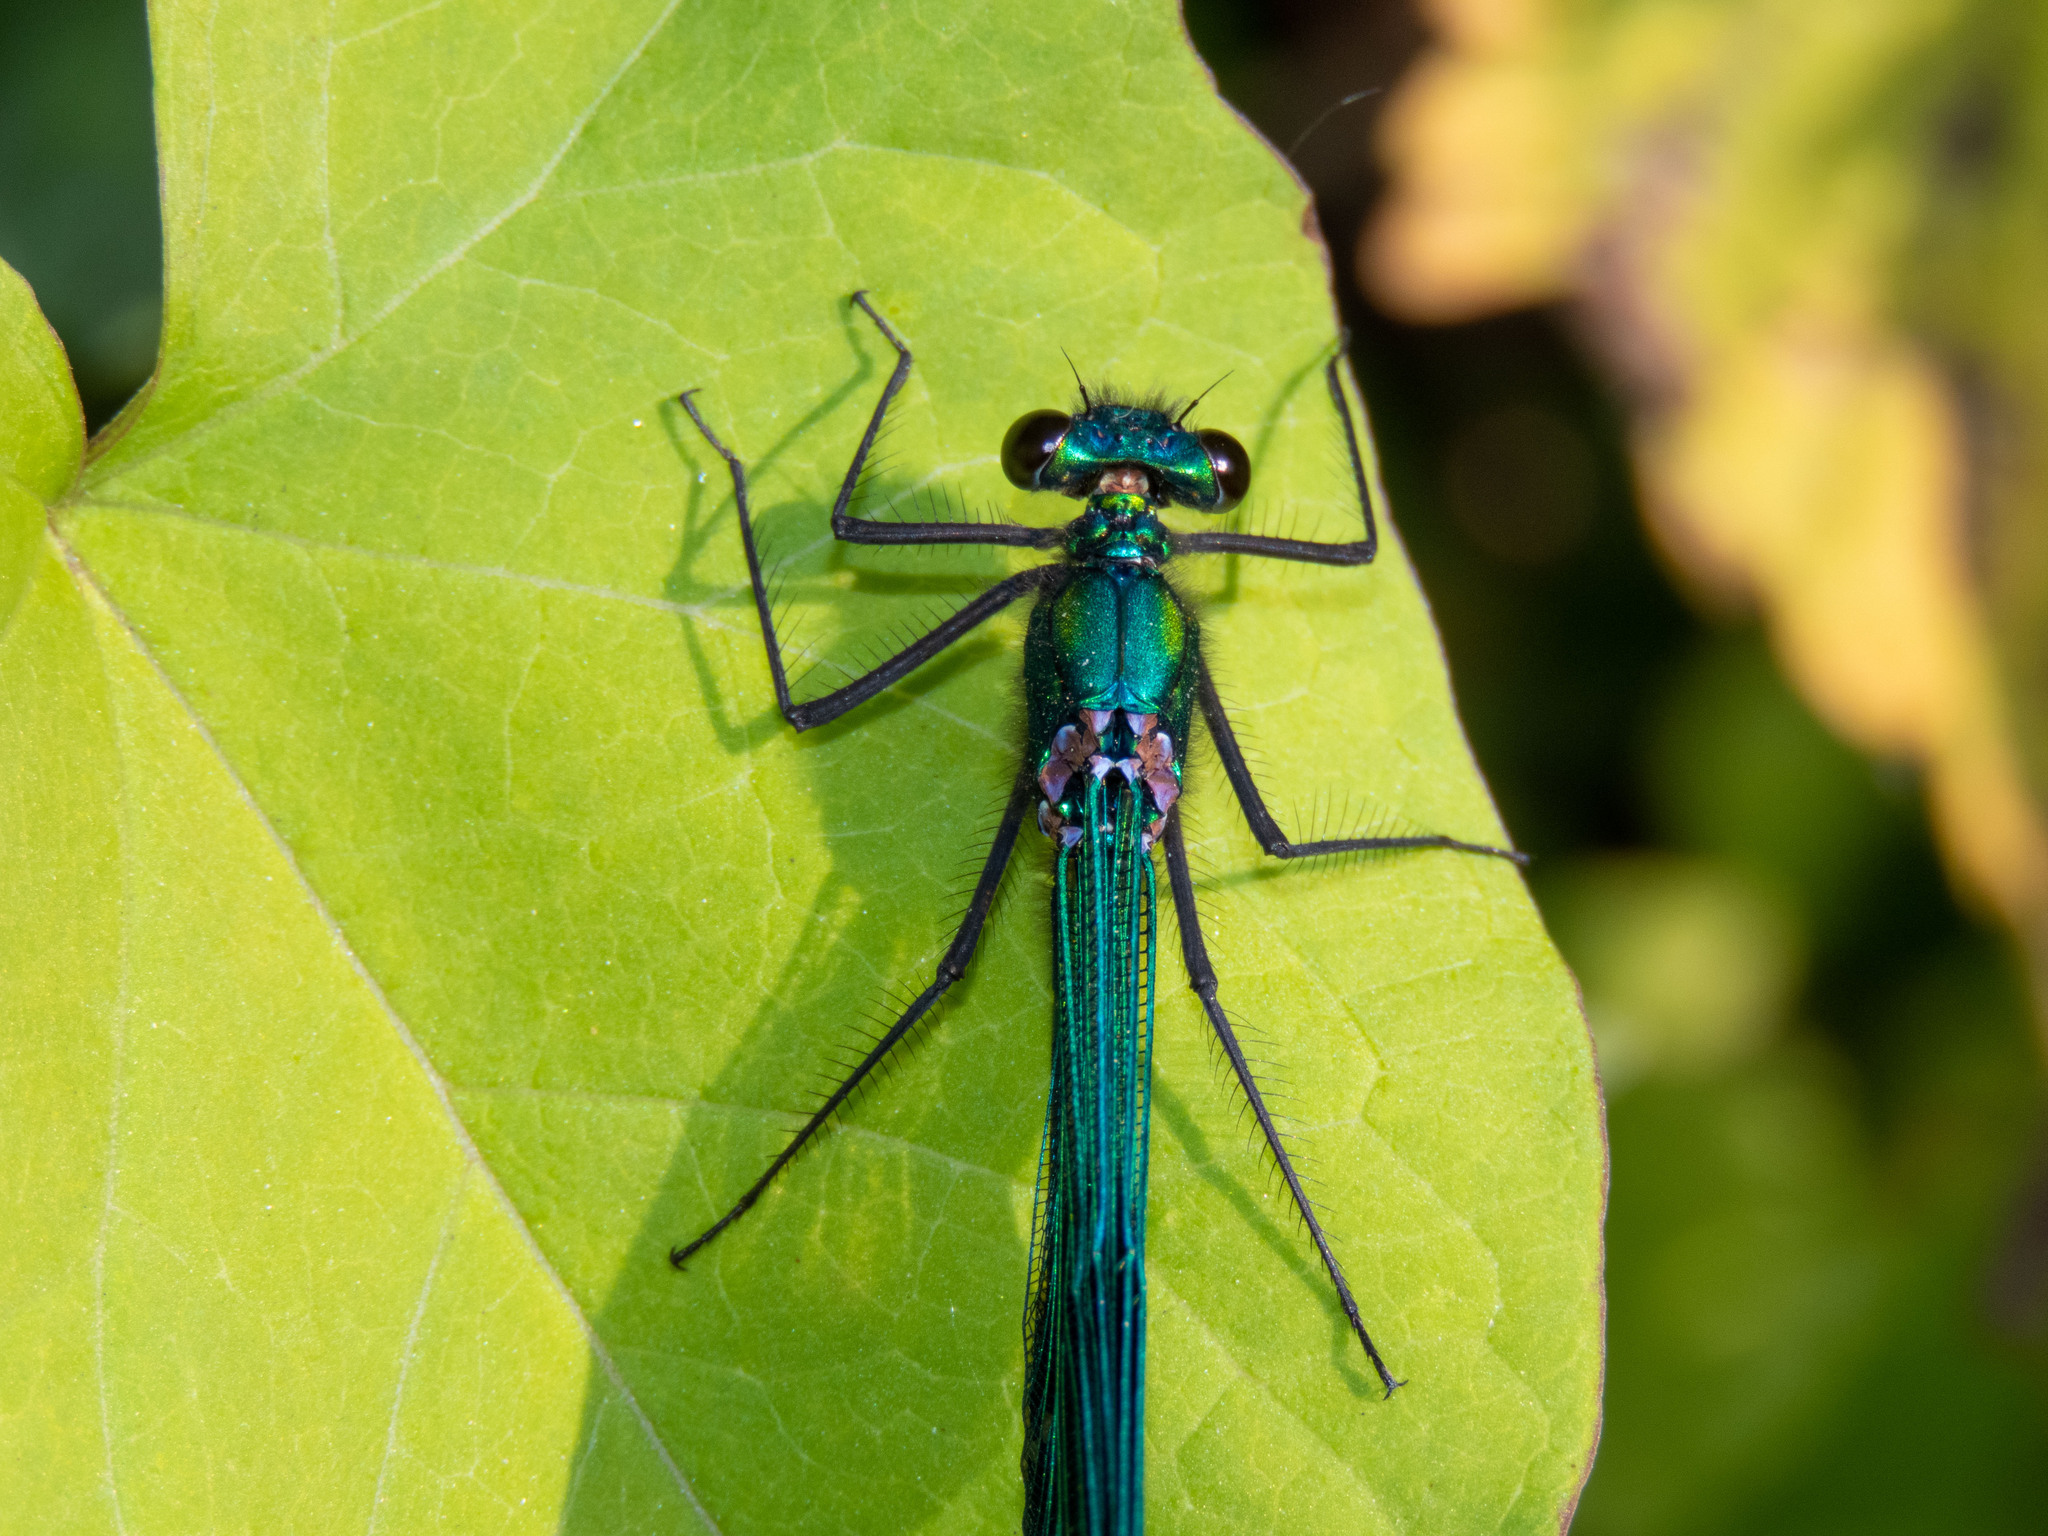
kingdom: Animalia
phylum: Arthropoda
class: Insecta
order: Odonata
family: Calopterygidae
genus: Calopteryx
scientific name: Calopteryx xanthostoma
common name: Western demoiselle
